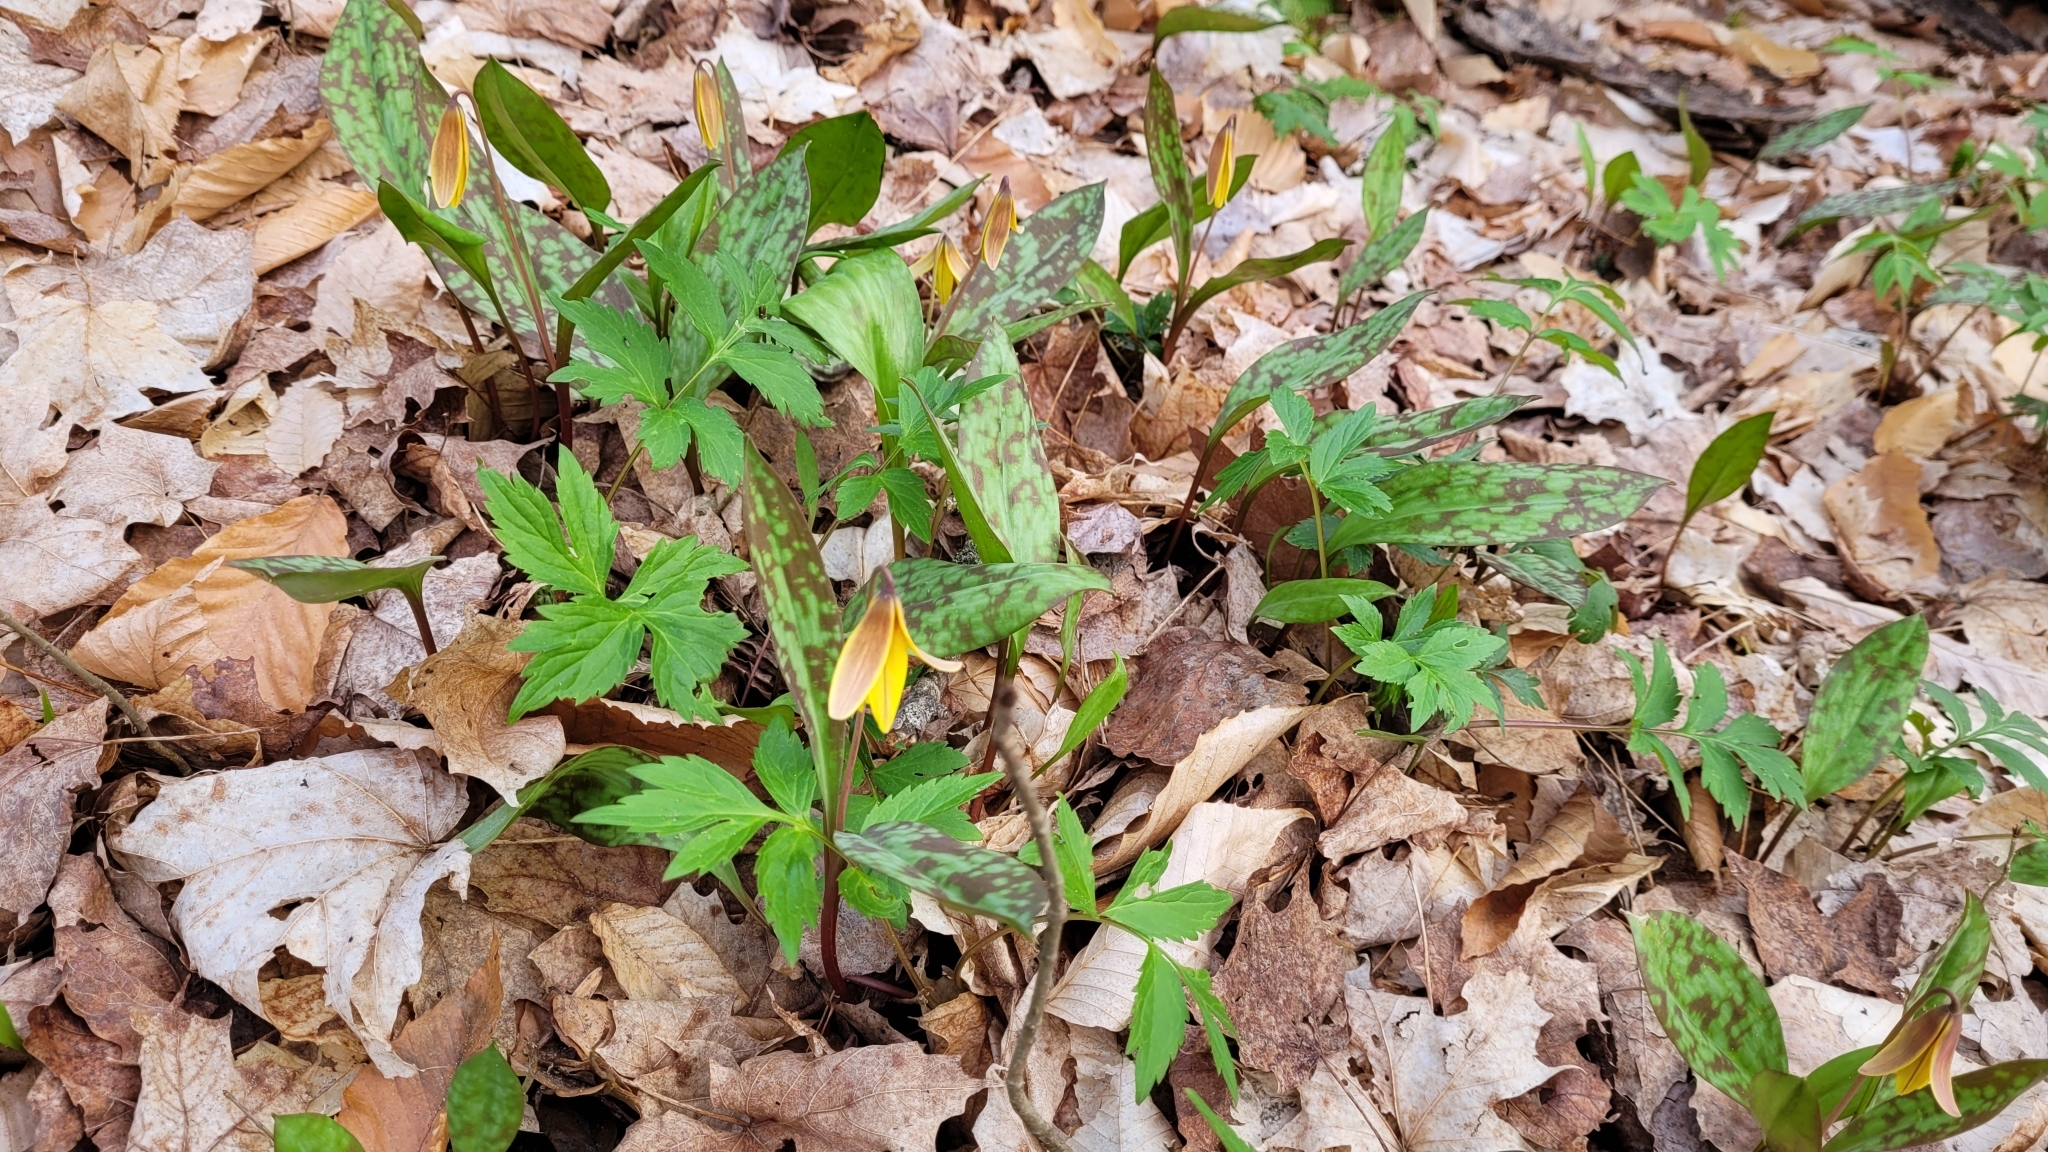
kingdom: Plantae
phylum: Tracheophyta
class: Liliopsida
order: Liliales
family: Liliaceae
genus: Erythronium
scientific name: Erythronium americanum
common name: Yellow adder's-tongue
